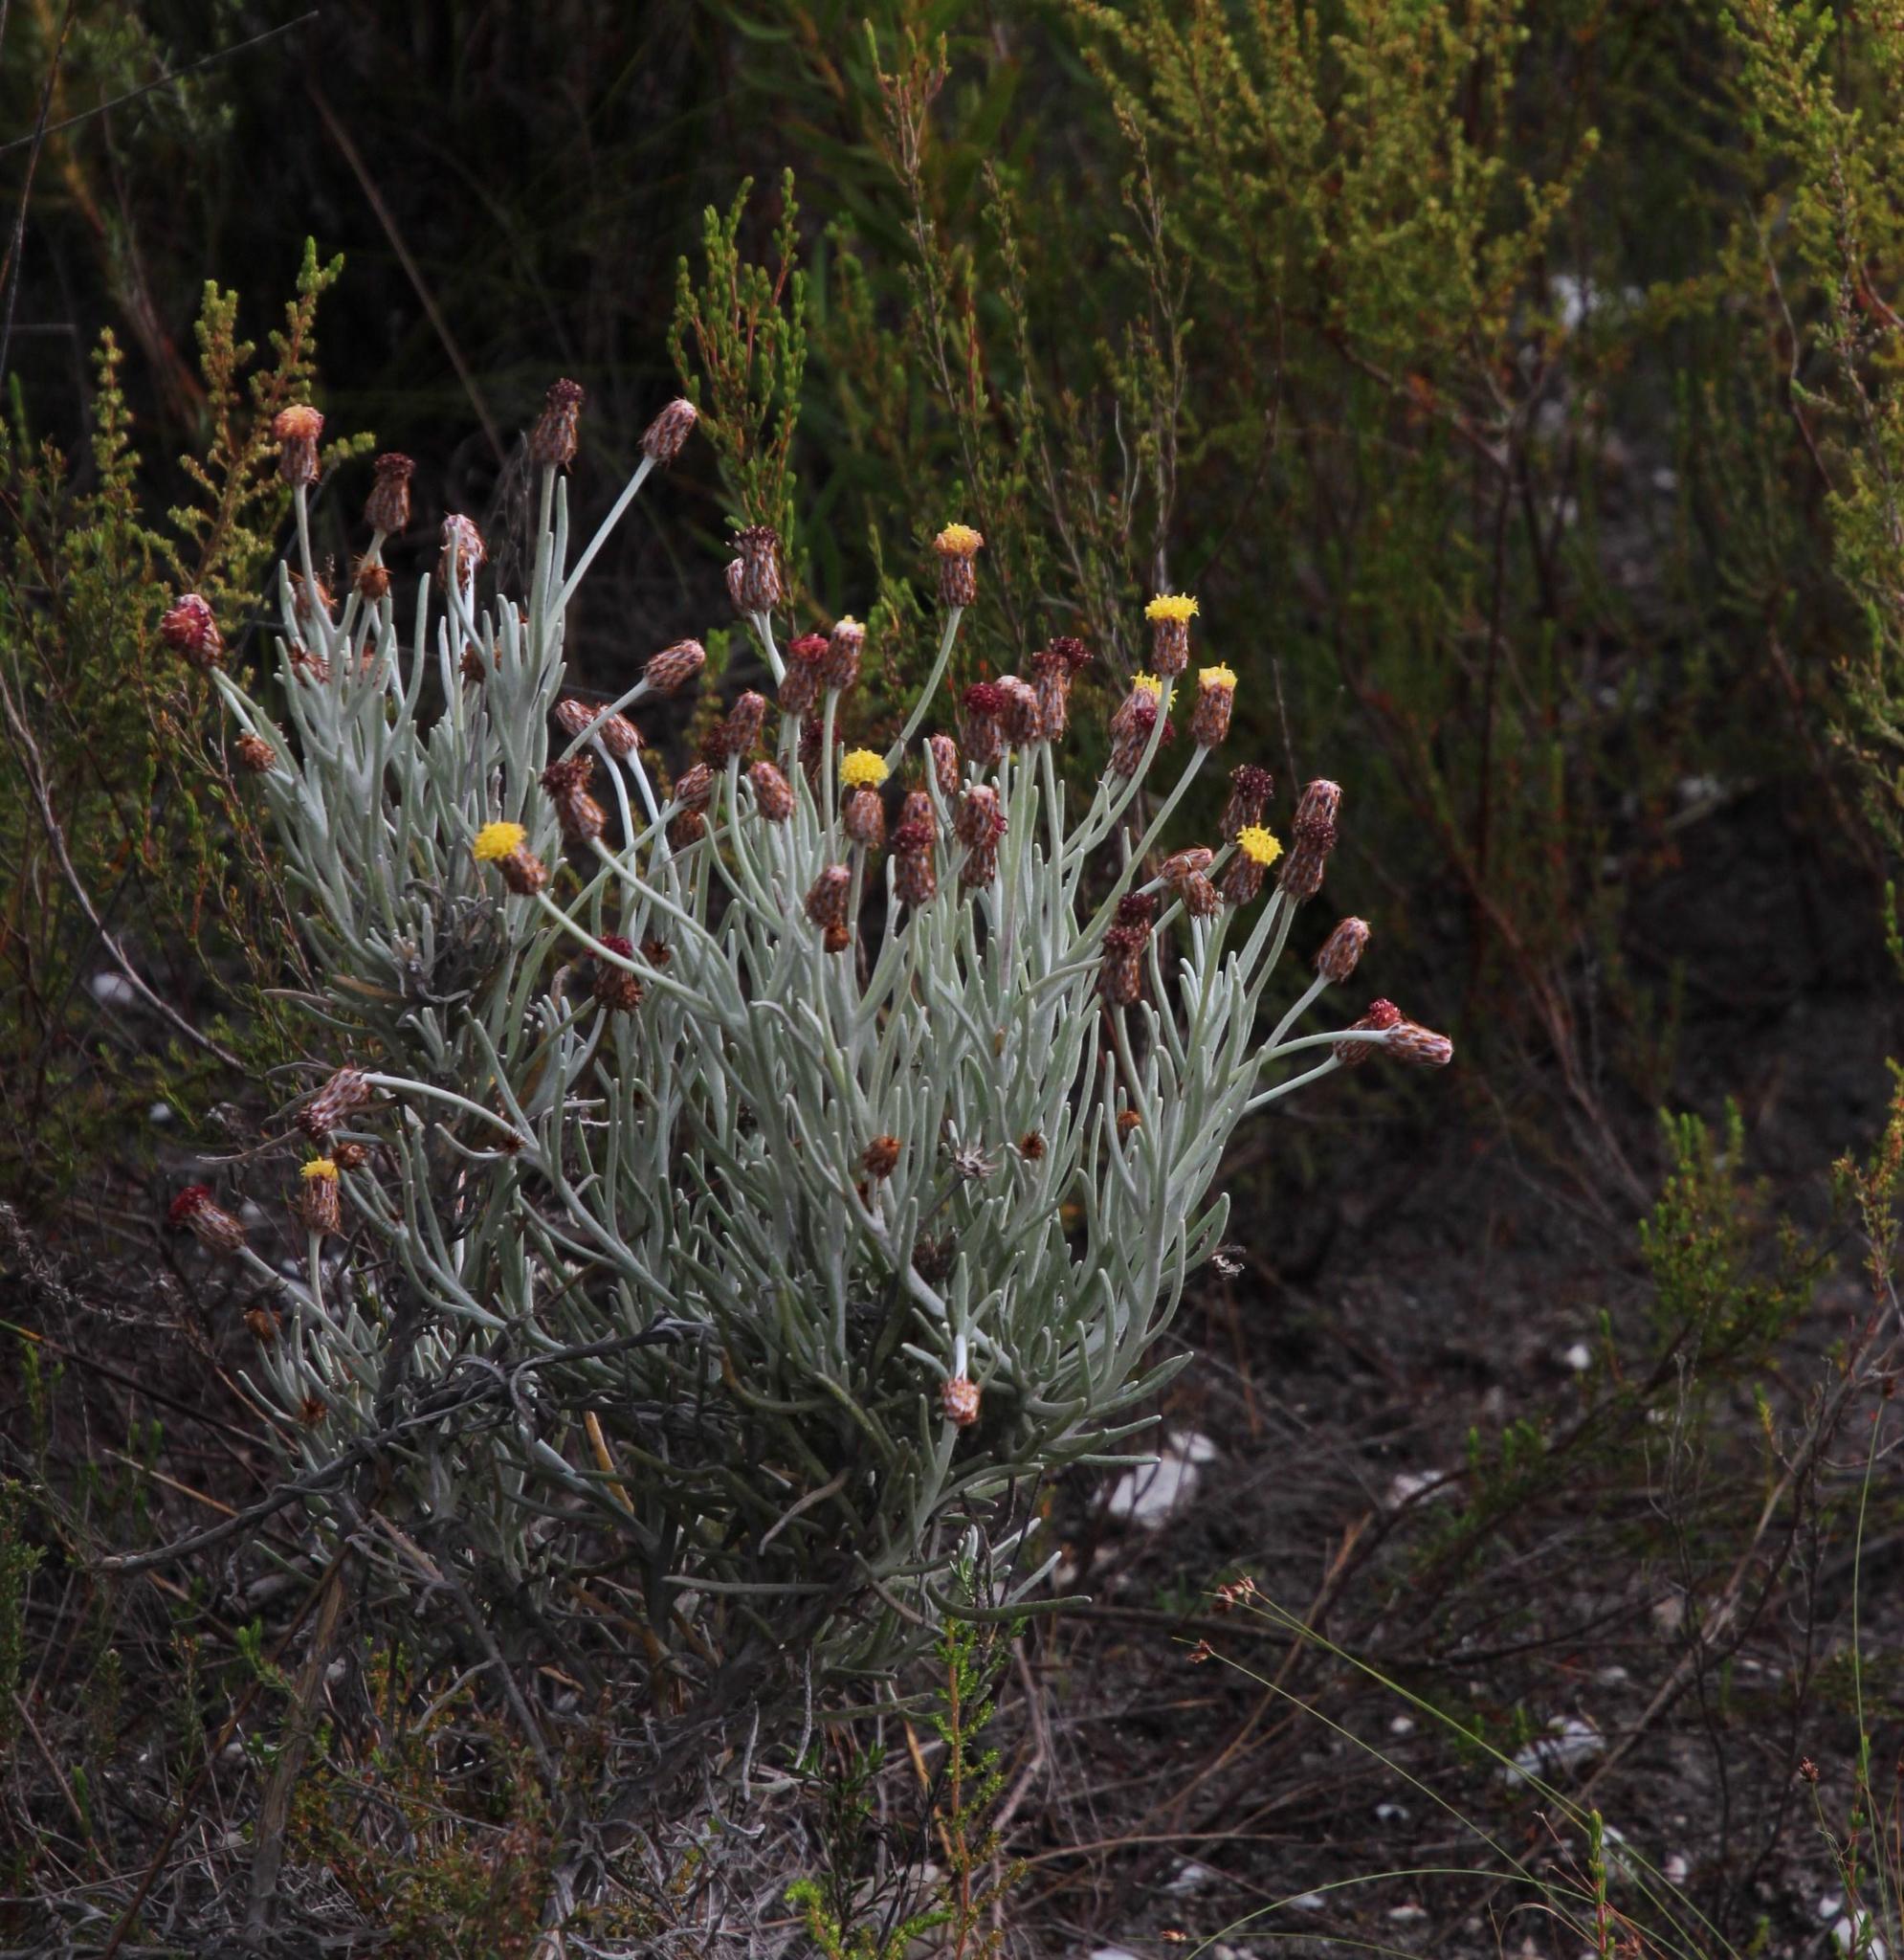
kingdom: Plantae
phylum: Tracheophyta
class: Magnoliopsida
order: Asterales
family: Asteraceae
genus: Syncarpha
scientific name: Syncarpha gnaphaloides
